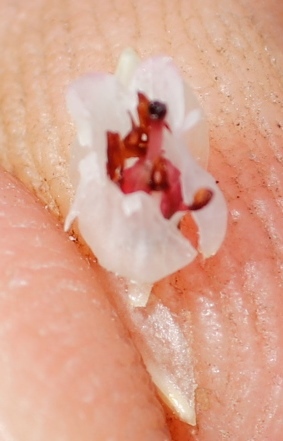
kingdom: Plantae
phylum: Tracheophyta
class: Magnoliopsida
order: Ericales
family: Ericaceae
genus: Erica
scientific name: Erica palliiflora
